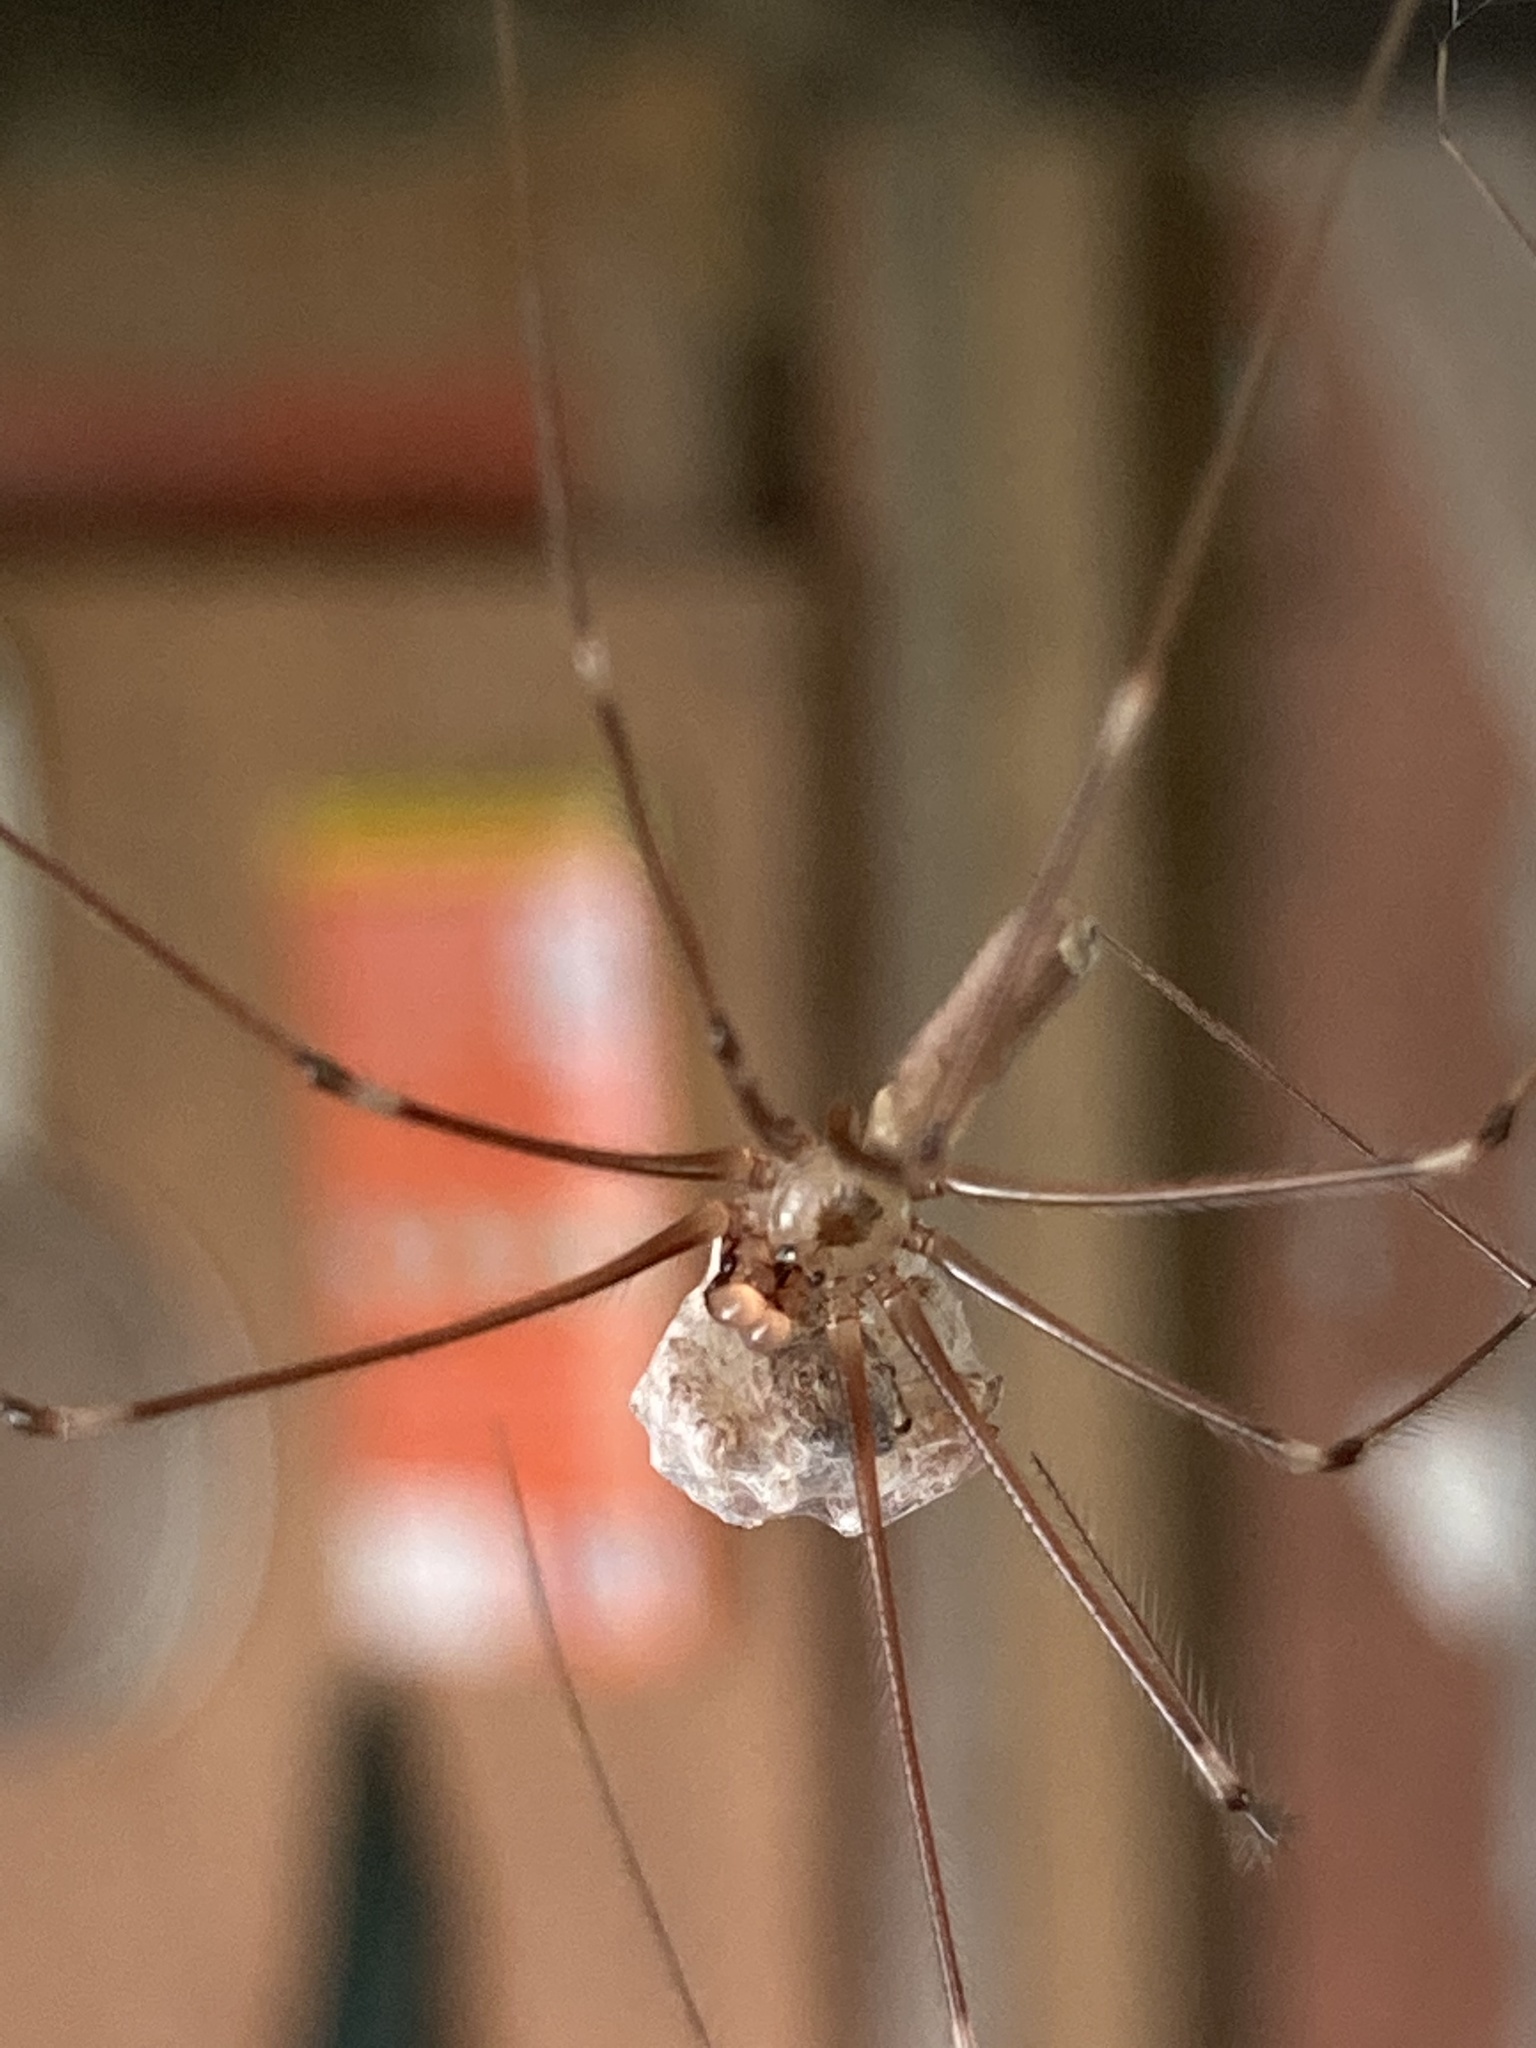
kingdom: Animalia
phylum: Arthropoda
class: Arachnida
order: Araneae
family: Pholcidae
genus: Pholcus
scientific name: Pholcus phalangioides
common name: Longbodied cellar spider
